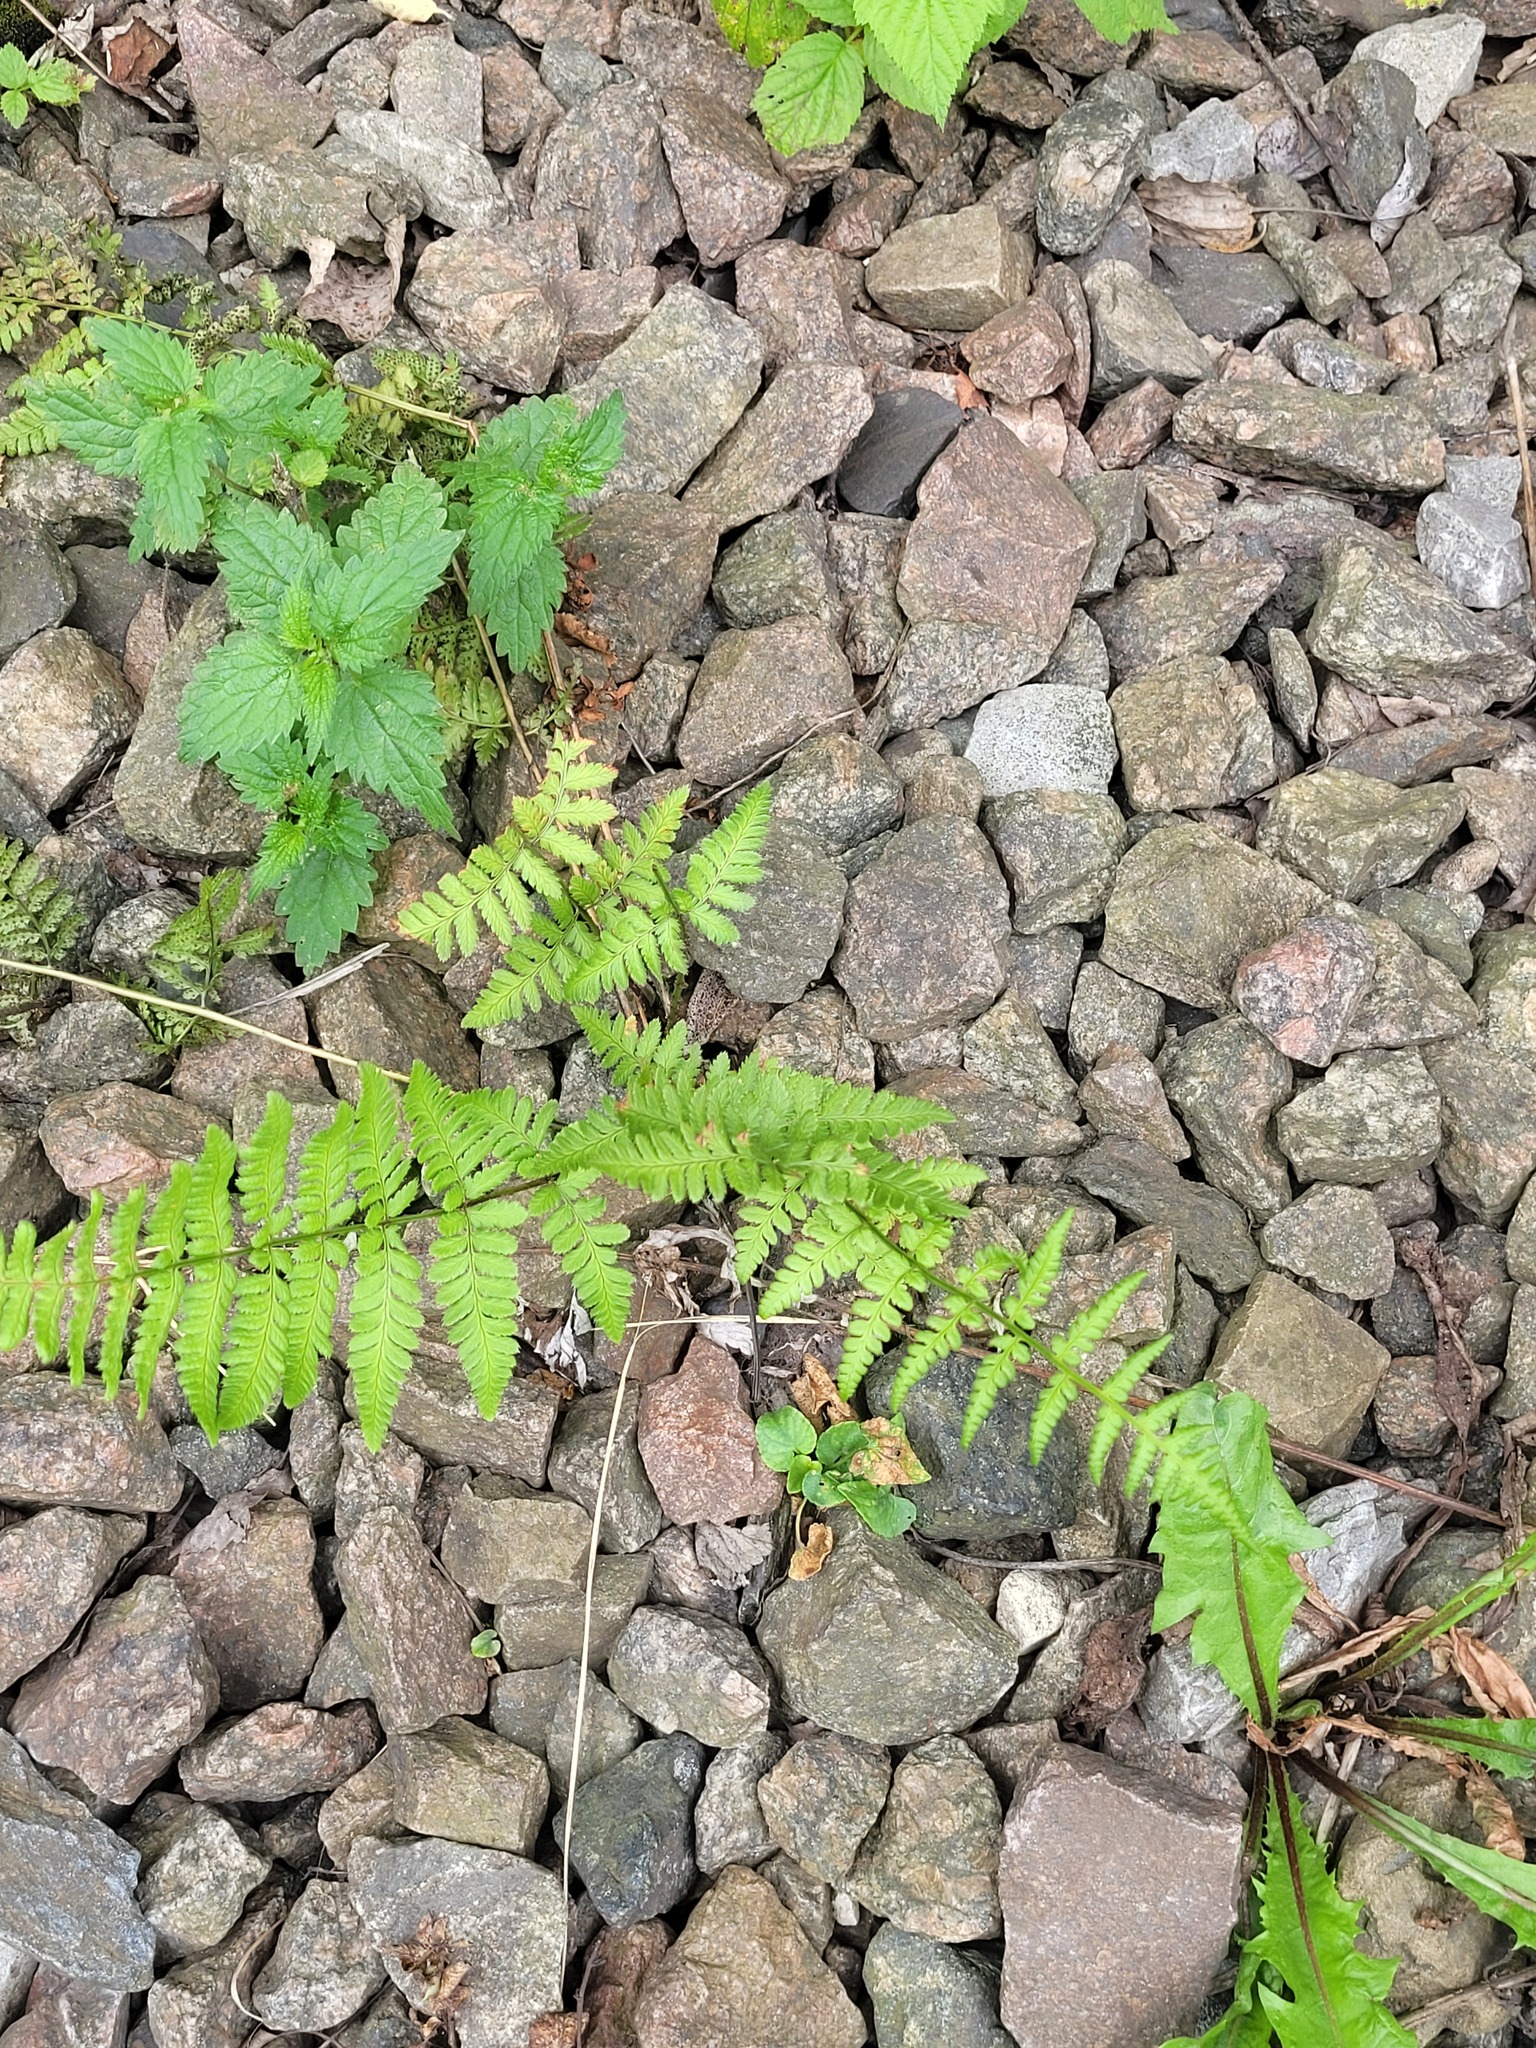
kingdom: Plantae
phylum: Tracheophyta
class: Polypodiopsida
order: Polypodiales
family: Dryopteridaceae
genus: Dryopteris
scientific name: Dryopteris carthusiana
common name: Narrow buckler-fern
